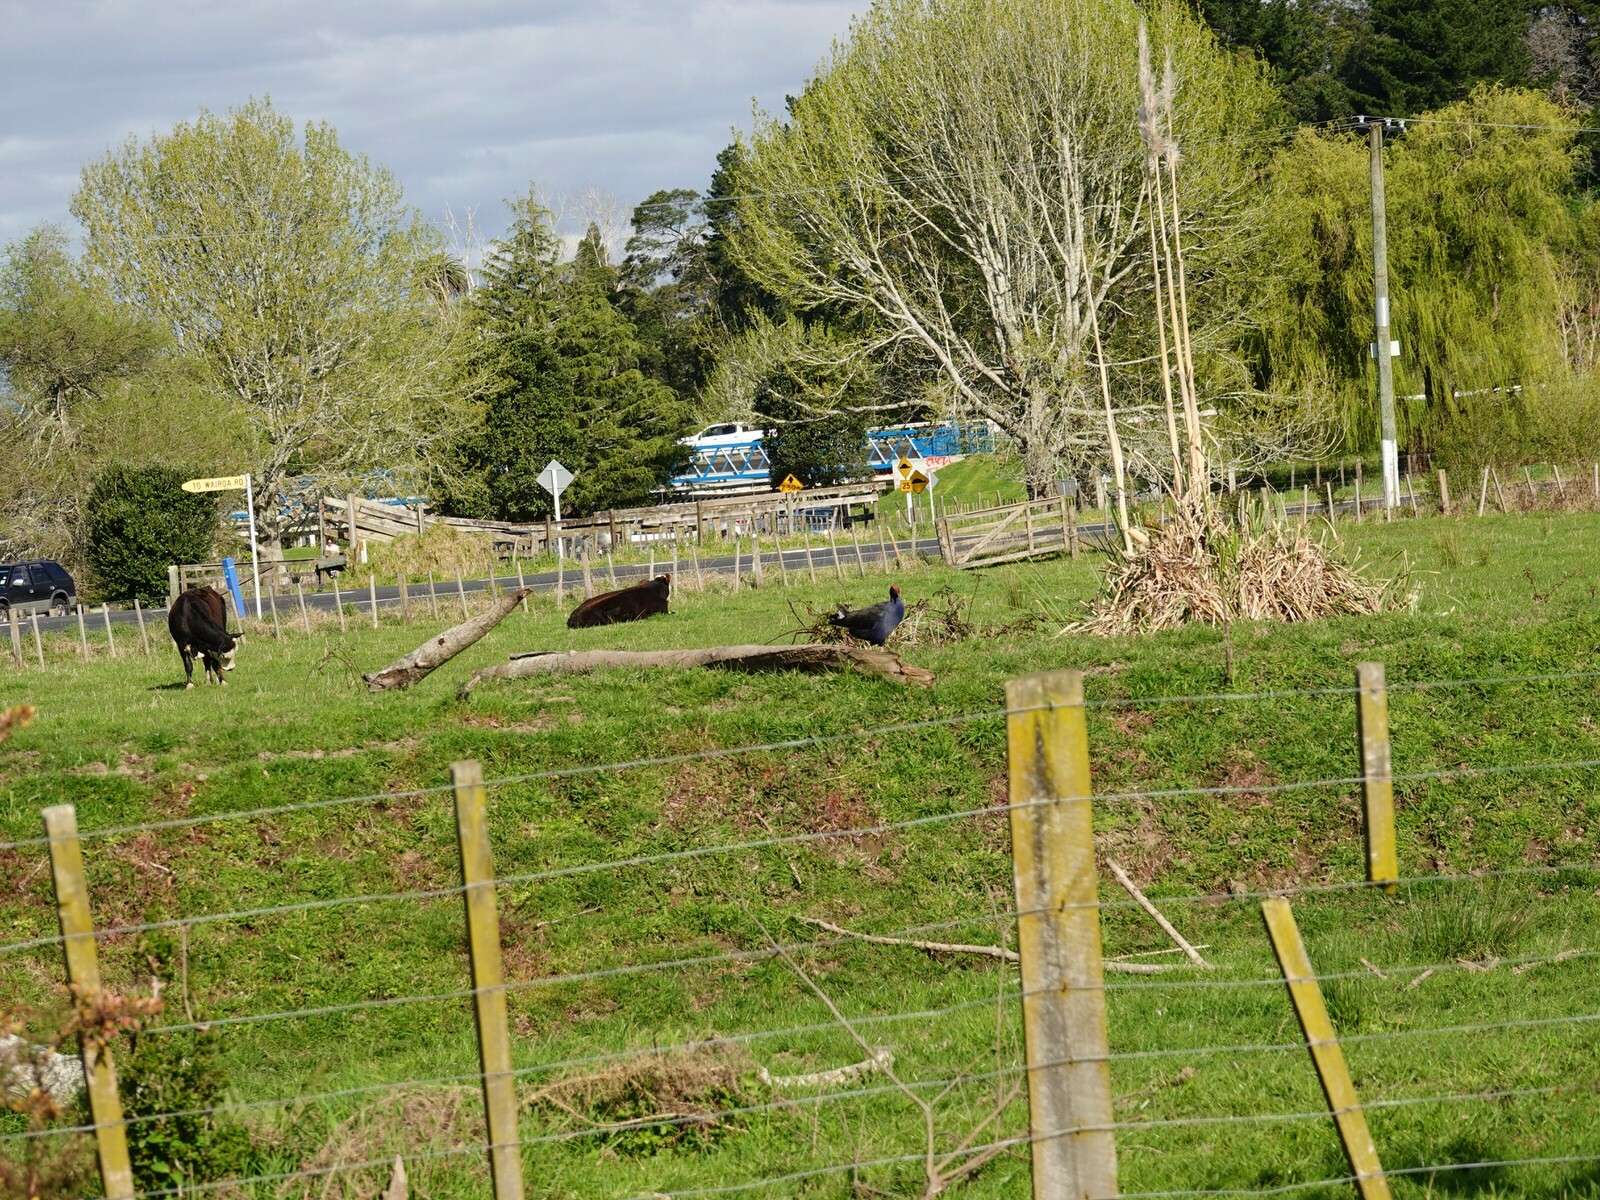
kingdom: Animalia
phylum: Chordata
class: Aves
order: Gruiformes
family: Rallidae
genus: Porphyrio
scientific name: Porphyrio melanotus
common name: Australasian swamphen
